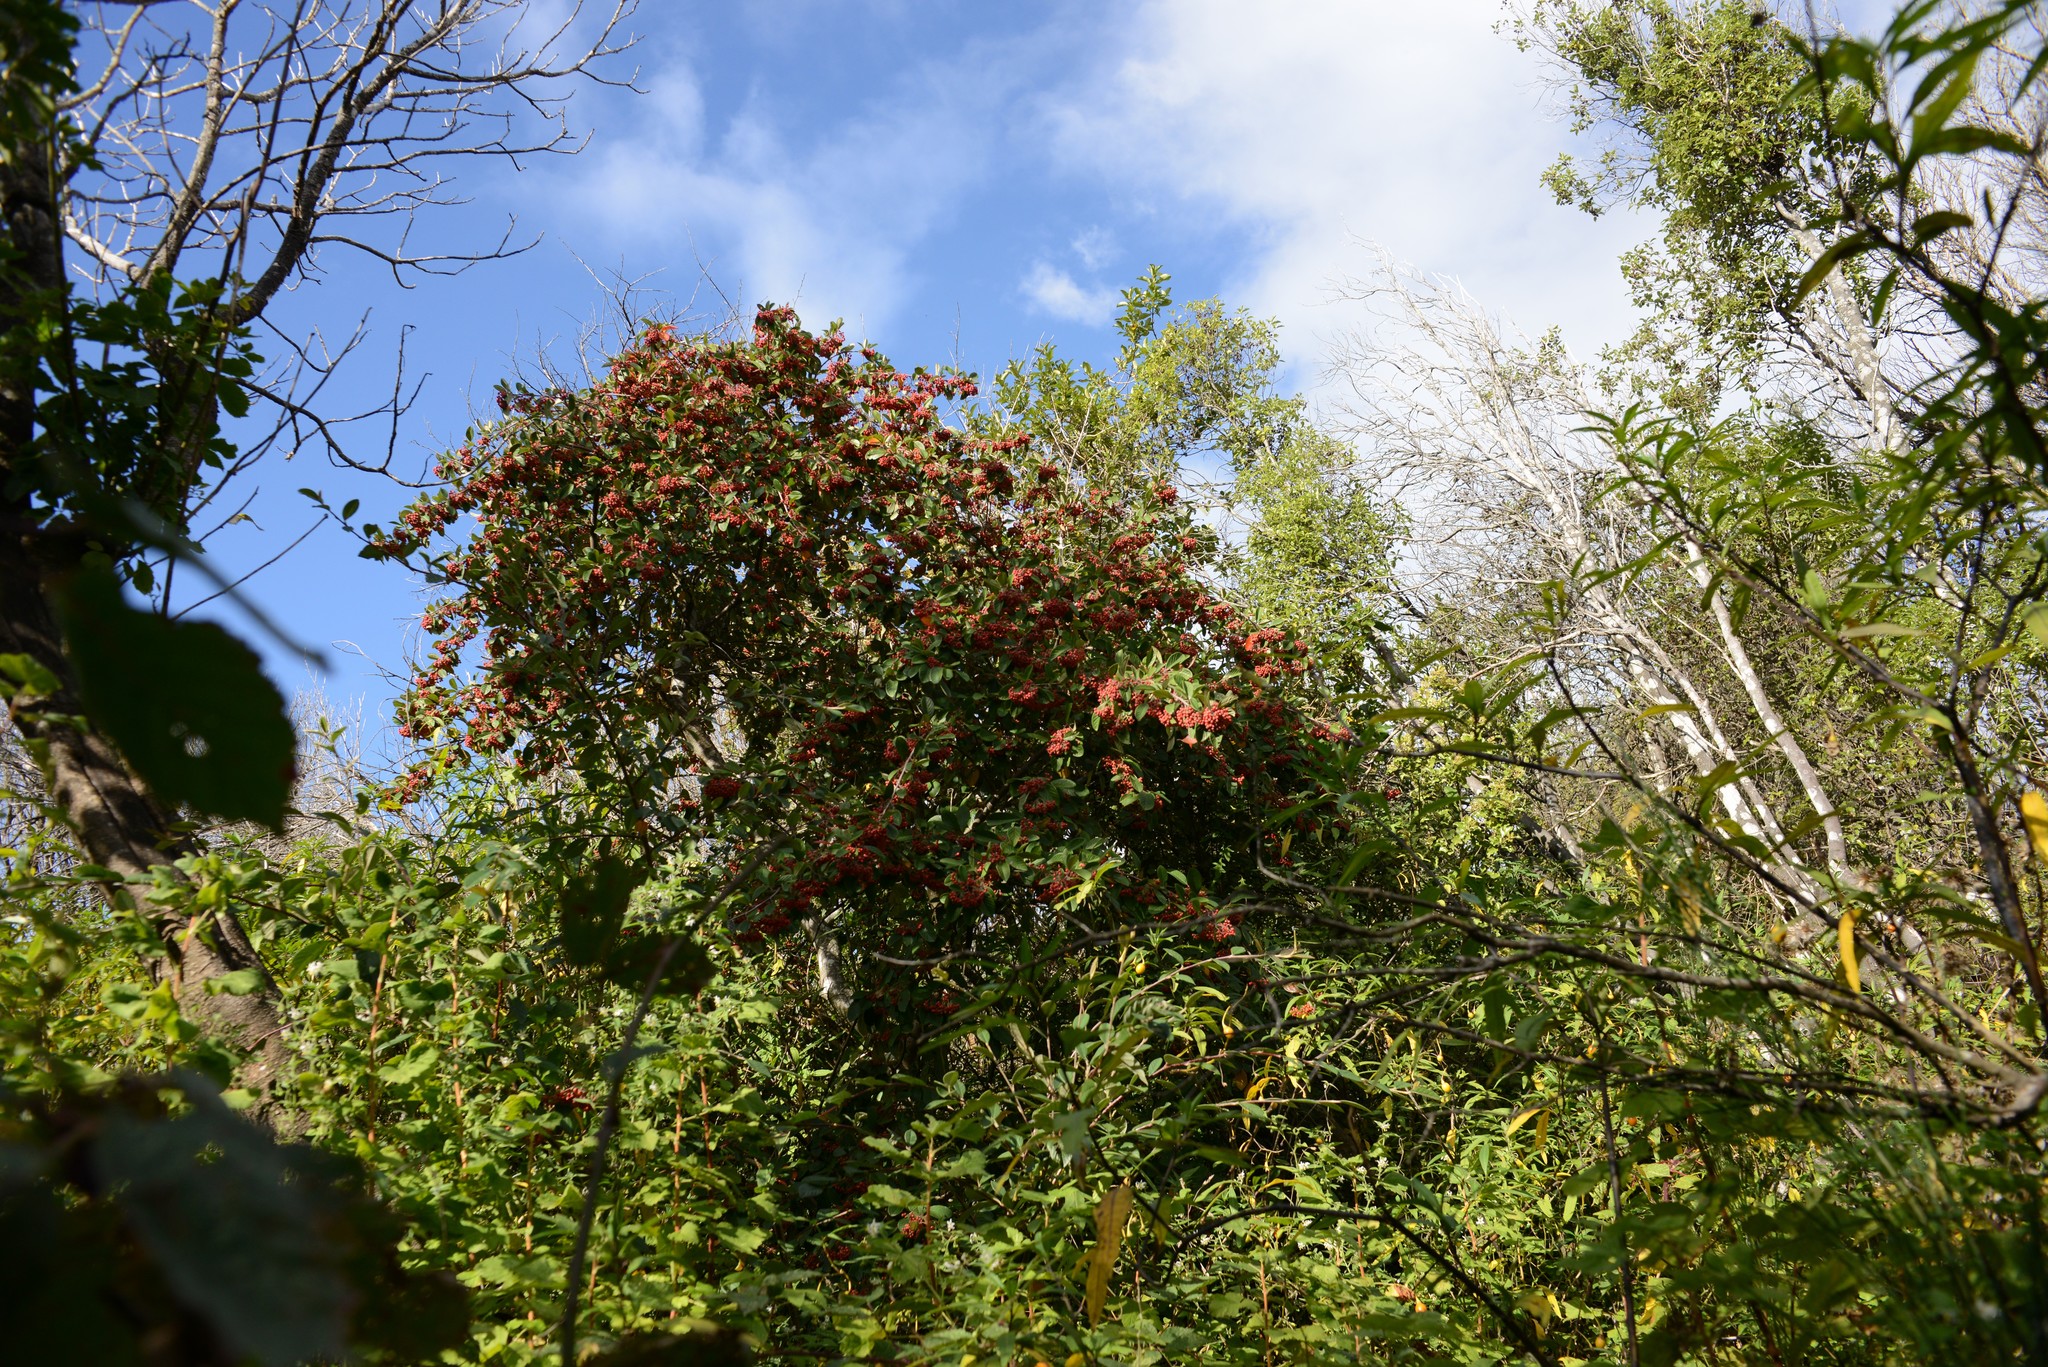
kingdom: Plantae
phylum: Tracheophyta
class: Magnoliopsida
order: Rosales
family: Rosaceae
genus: Cotoneaster
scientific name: Cotoneaster coriaceus
